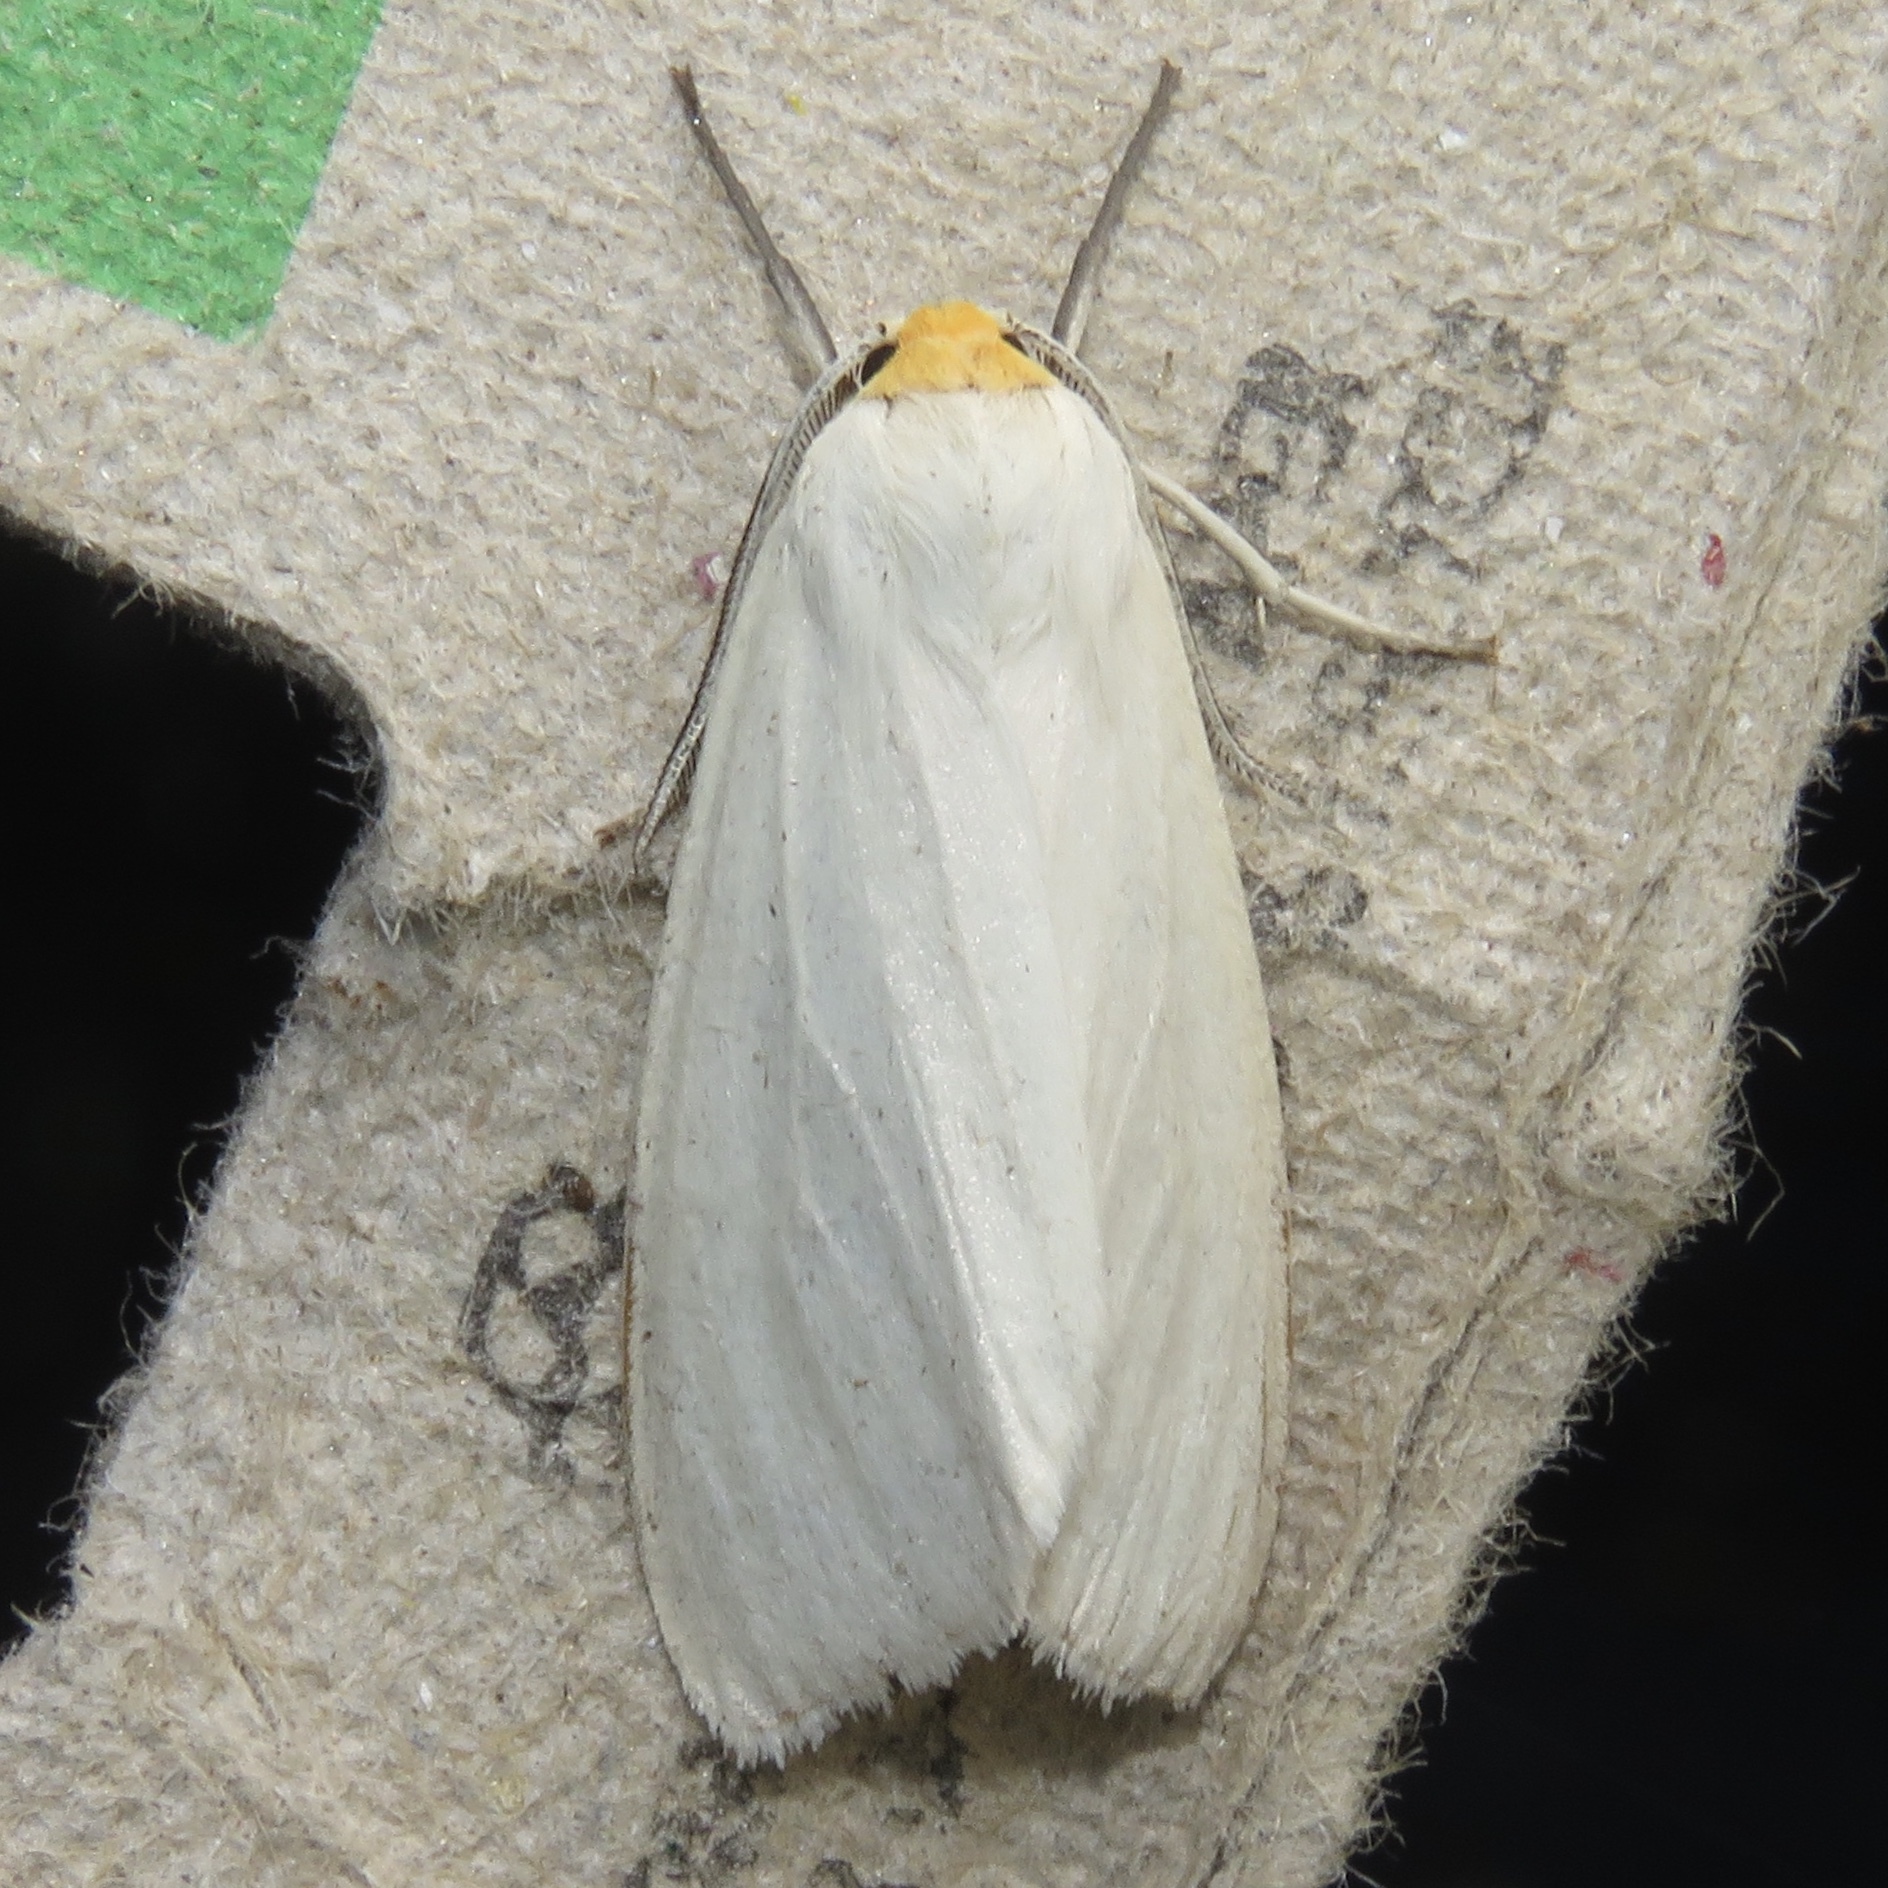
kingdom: Animalia
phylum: Arthropoda
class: Insecta
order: Lepidoptera
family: Erebidae
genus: Cycnia
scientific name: Cycnia oregonensis
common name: Oregon cycnia moth
